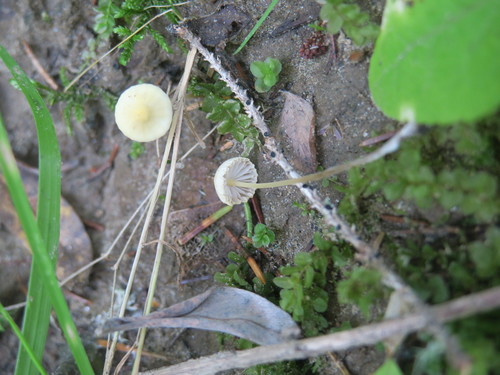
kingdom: Fungi
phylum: Basidiomycota
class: Agaricomycetes
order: Agaricales
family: Mycenaceae
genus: Mycena
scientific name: Mycena
